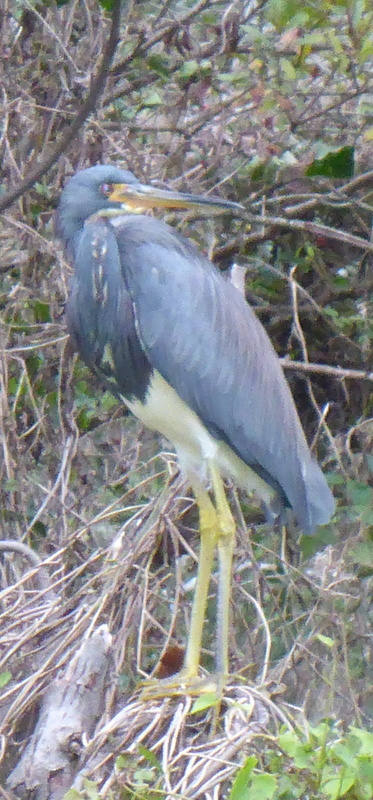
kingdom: Animalia
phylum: Chordata
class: Aves
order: Pelecaniformes
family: Ardeidae
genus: Egretta
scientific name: Egretta tricolor
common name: Tricolored heron
